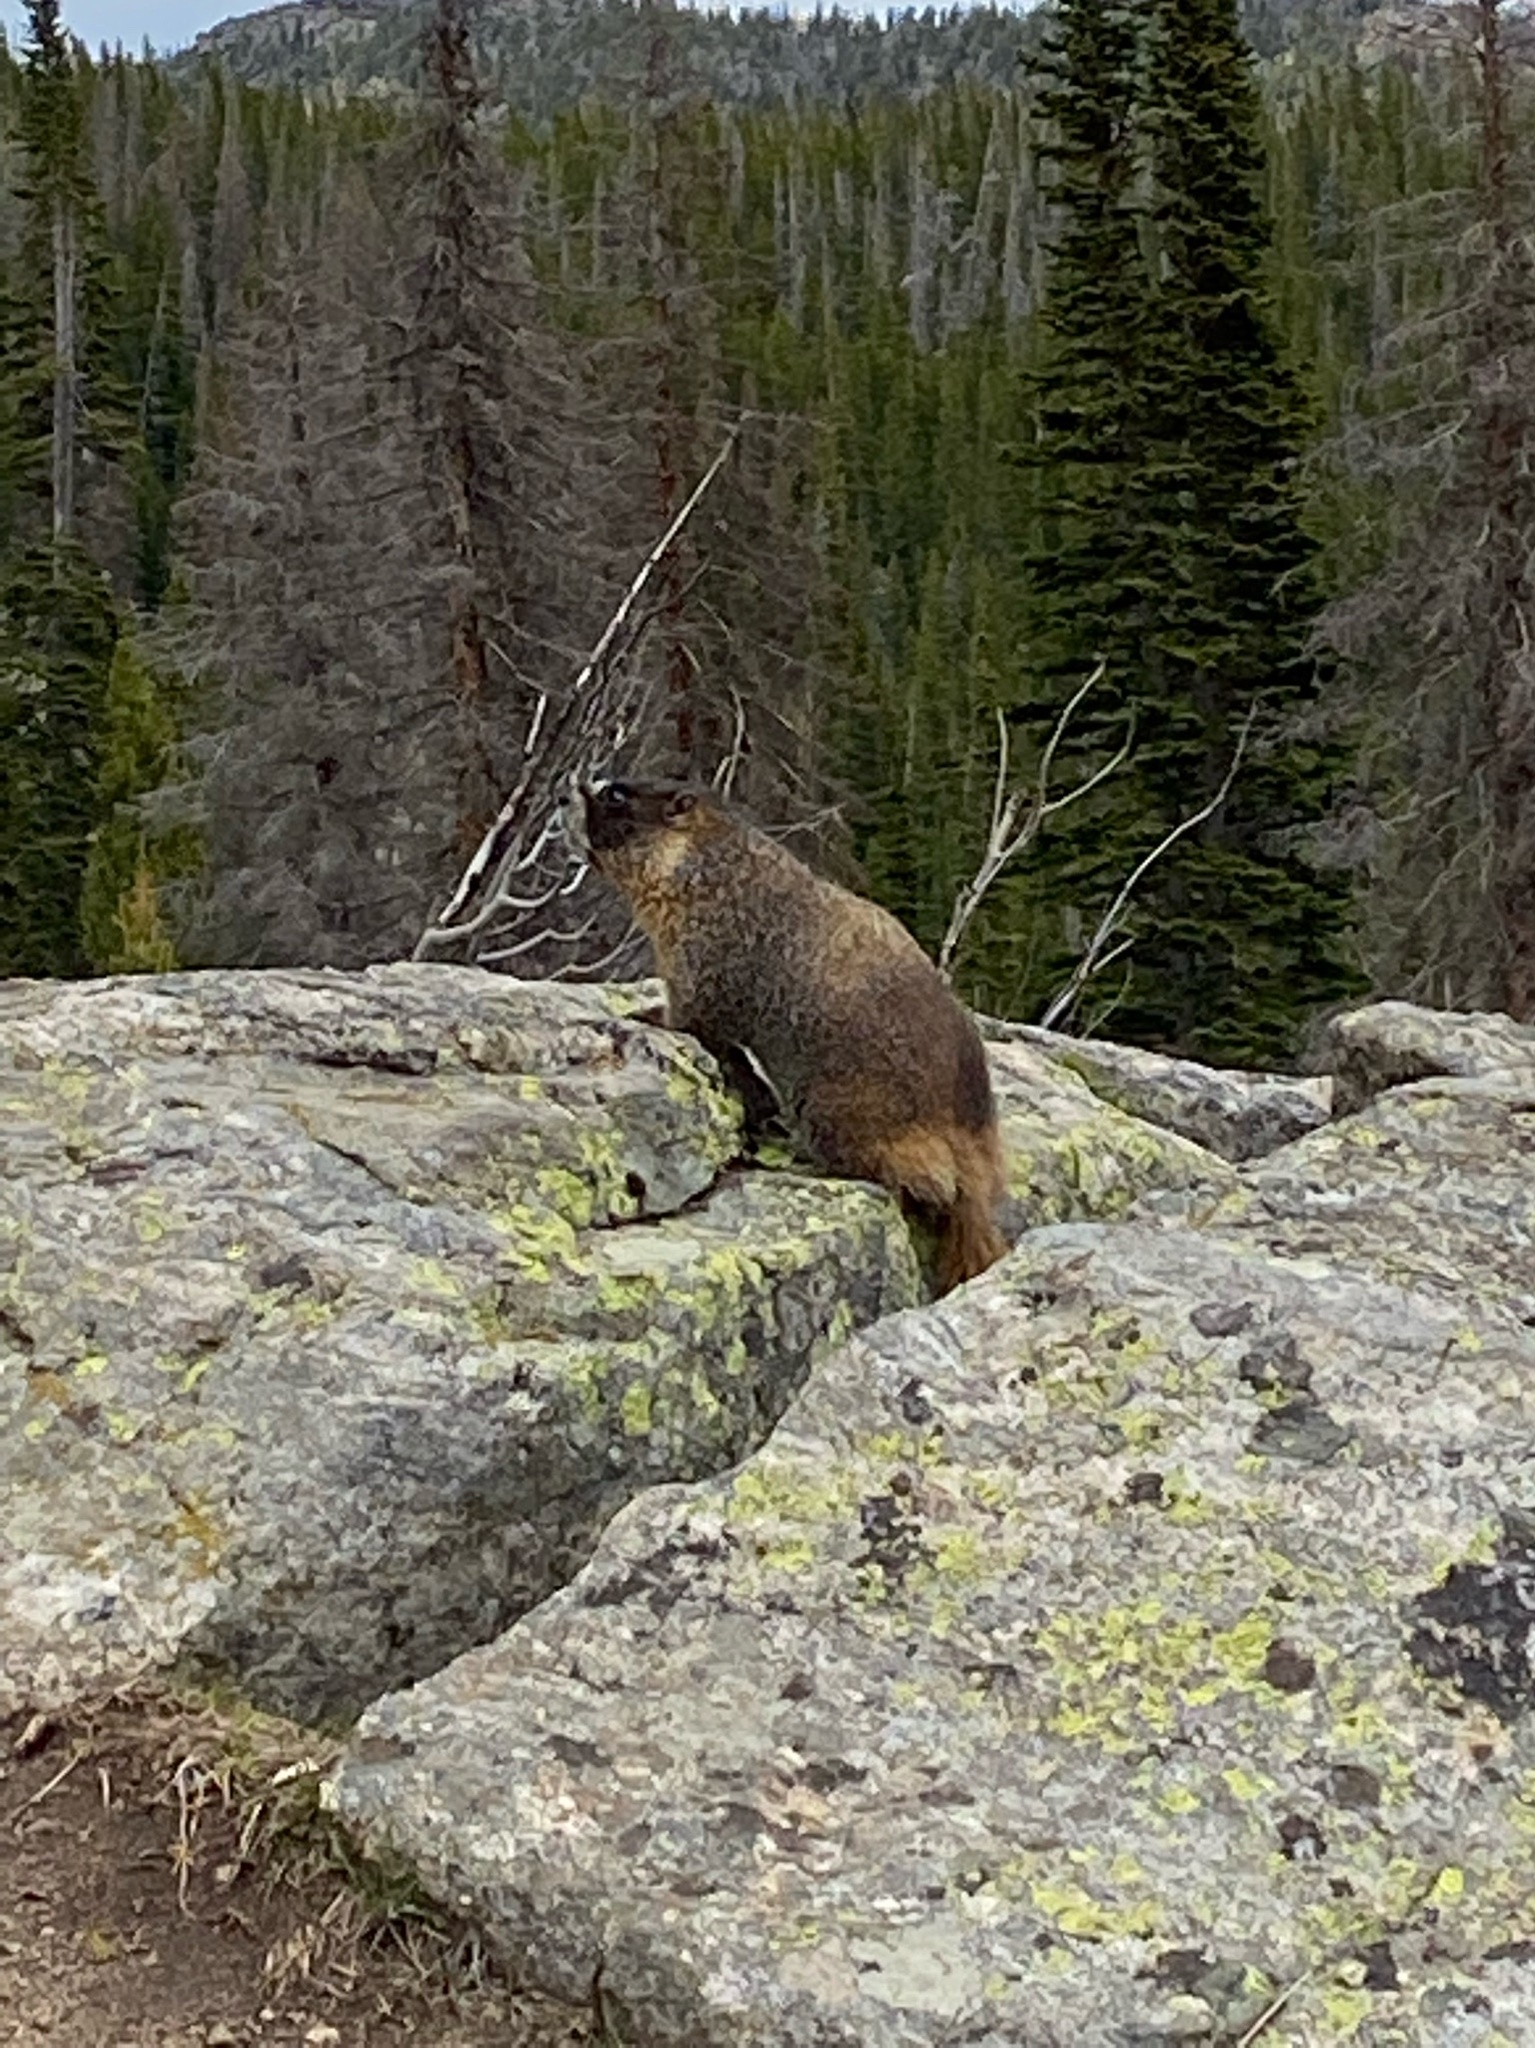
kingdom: Animalia
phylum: Chordata
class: Mammalia
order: Rodentia
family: Sciuridae
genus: Marmota
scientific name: Marmota flaviventris
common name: Yellow-bellied marmot
